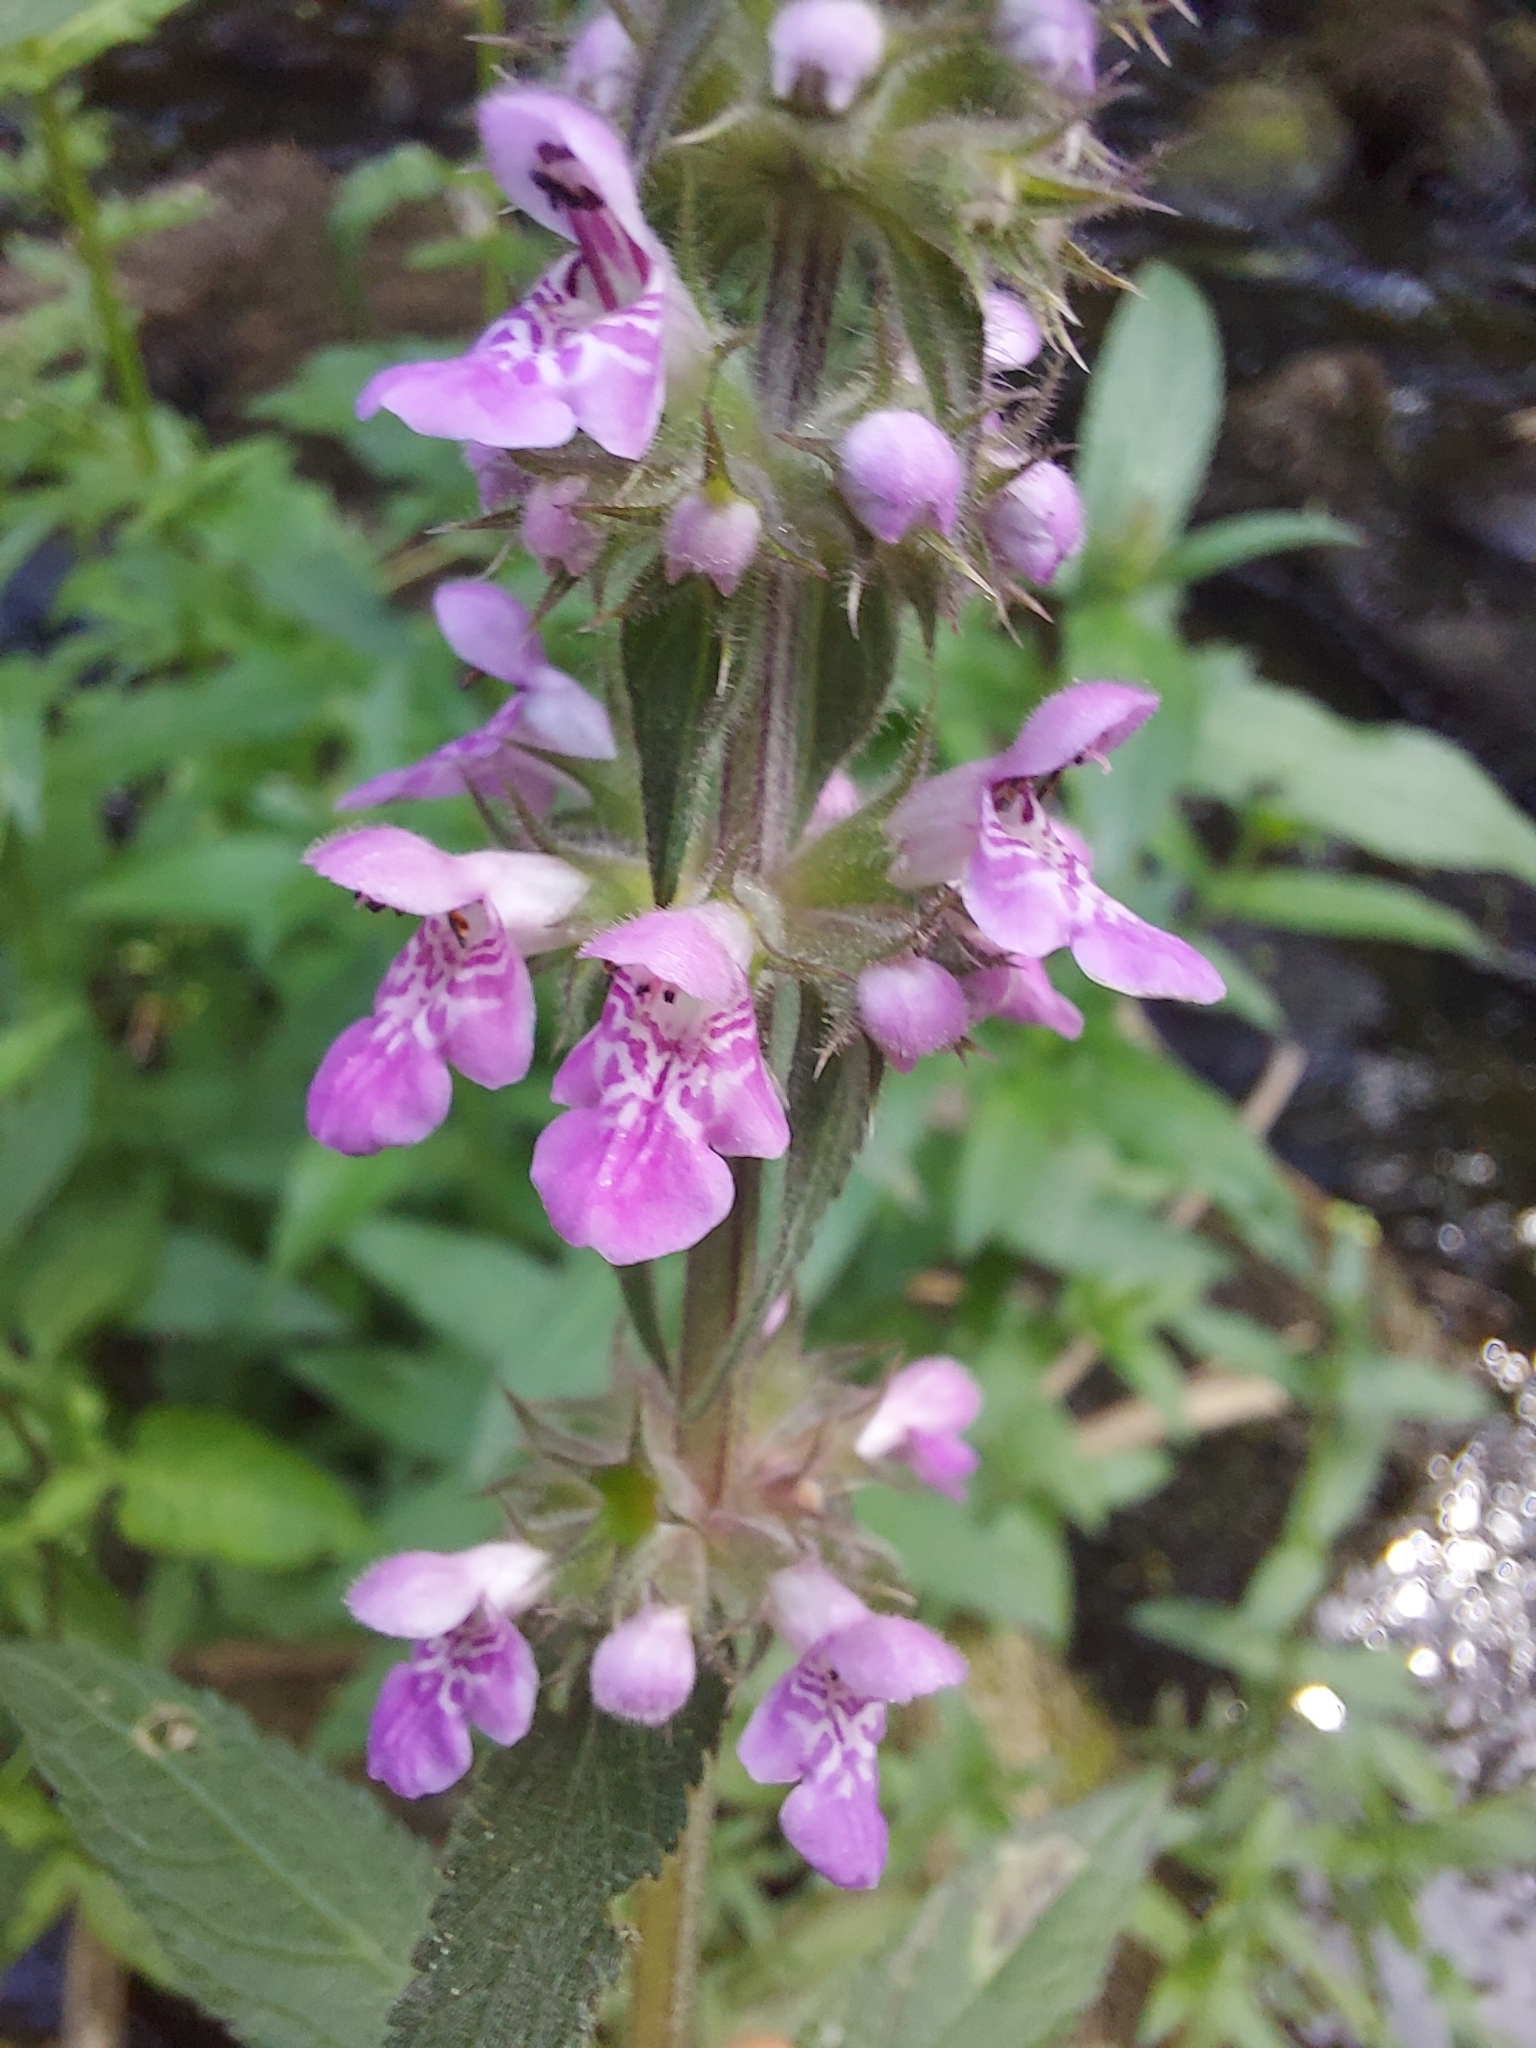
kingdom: Plantae
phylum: Tracheophyta
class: Magnoliopsida
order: Lamiales
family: Lamiaceae
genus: Stachys
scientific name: Stachys palustris
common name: Marsh woundwort
